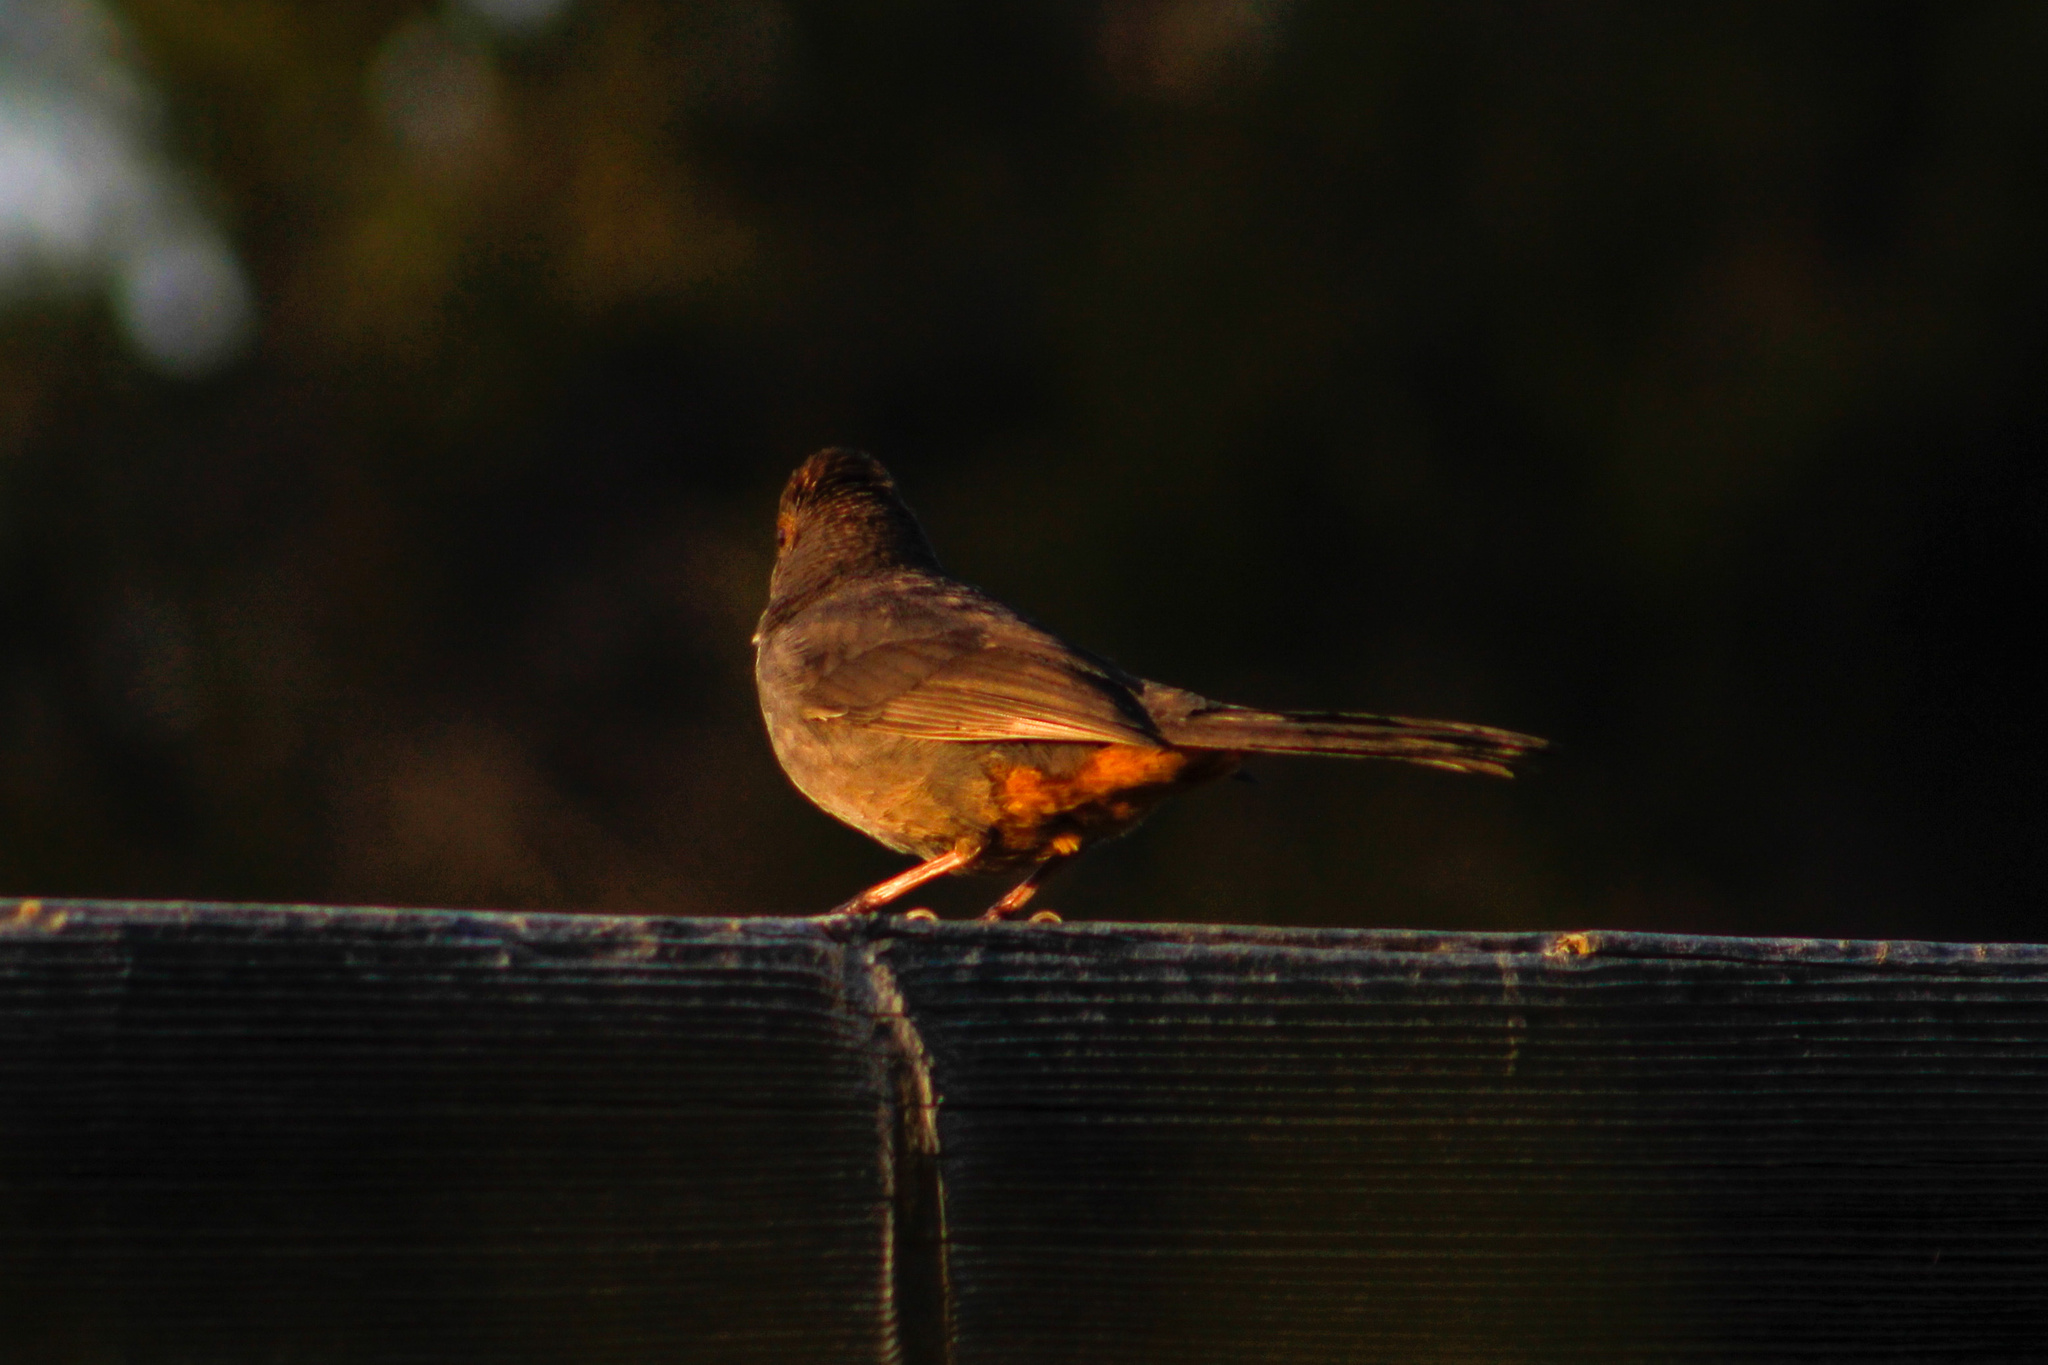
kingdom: Animalia
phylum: Chordata
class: Aves
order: Passeriformes
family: Passerellidae
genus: Melozone
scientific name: Melozone crissalis
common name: California towhee
